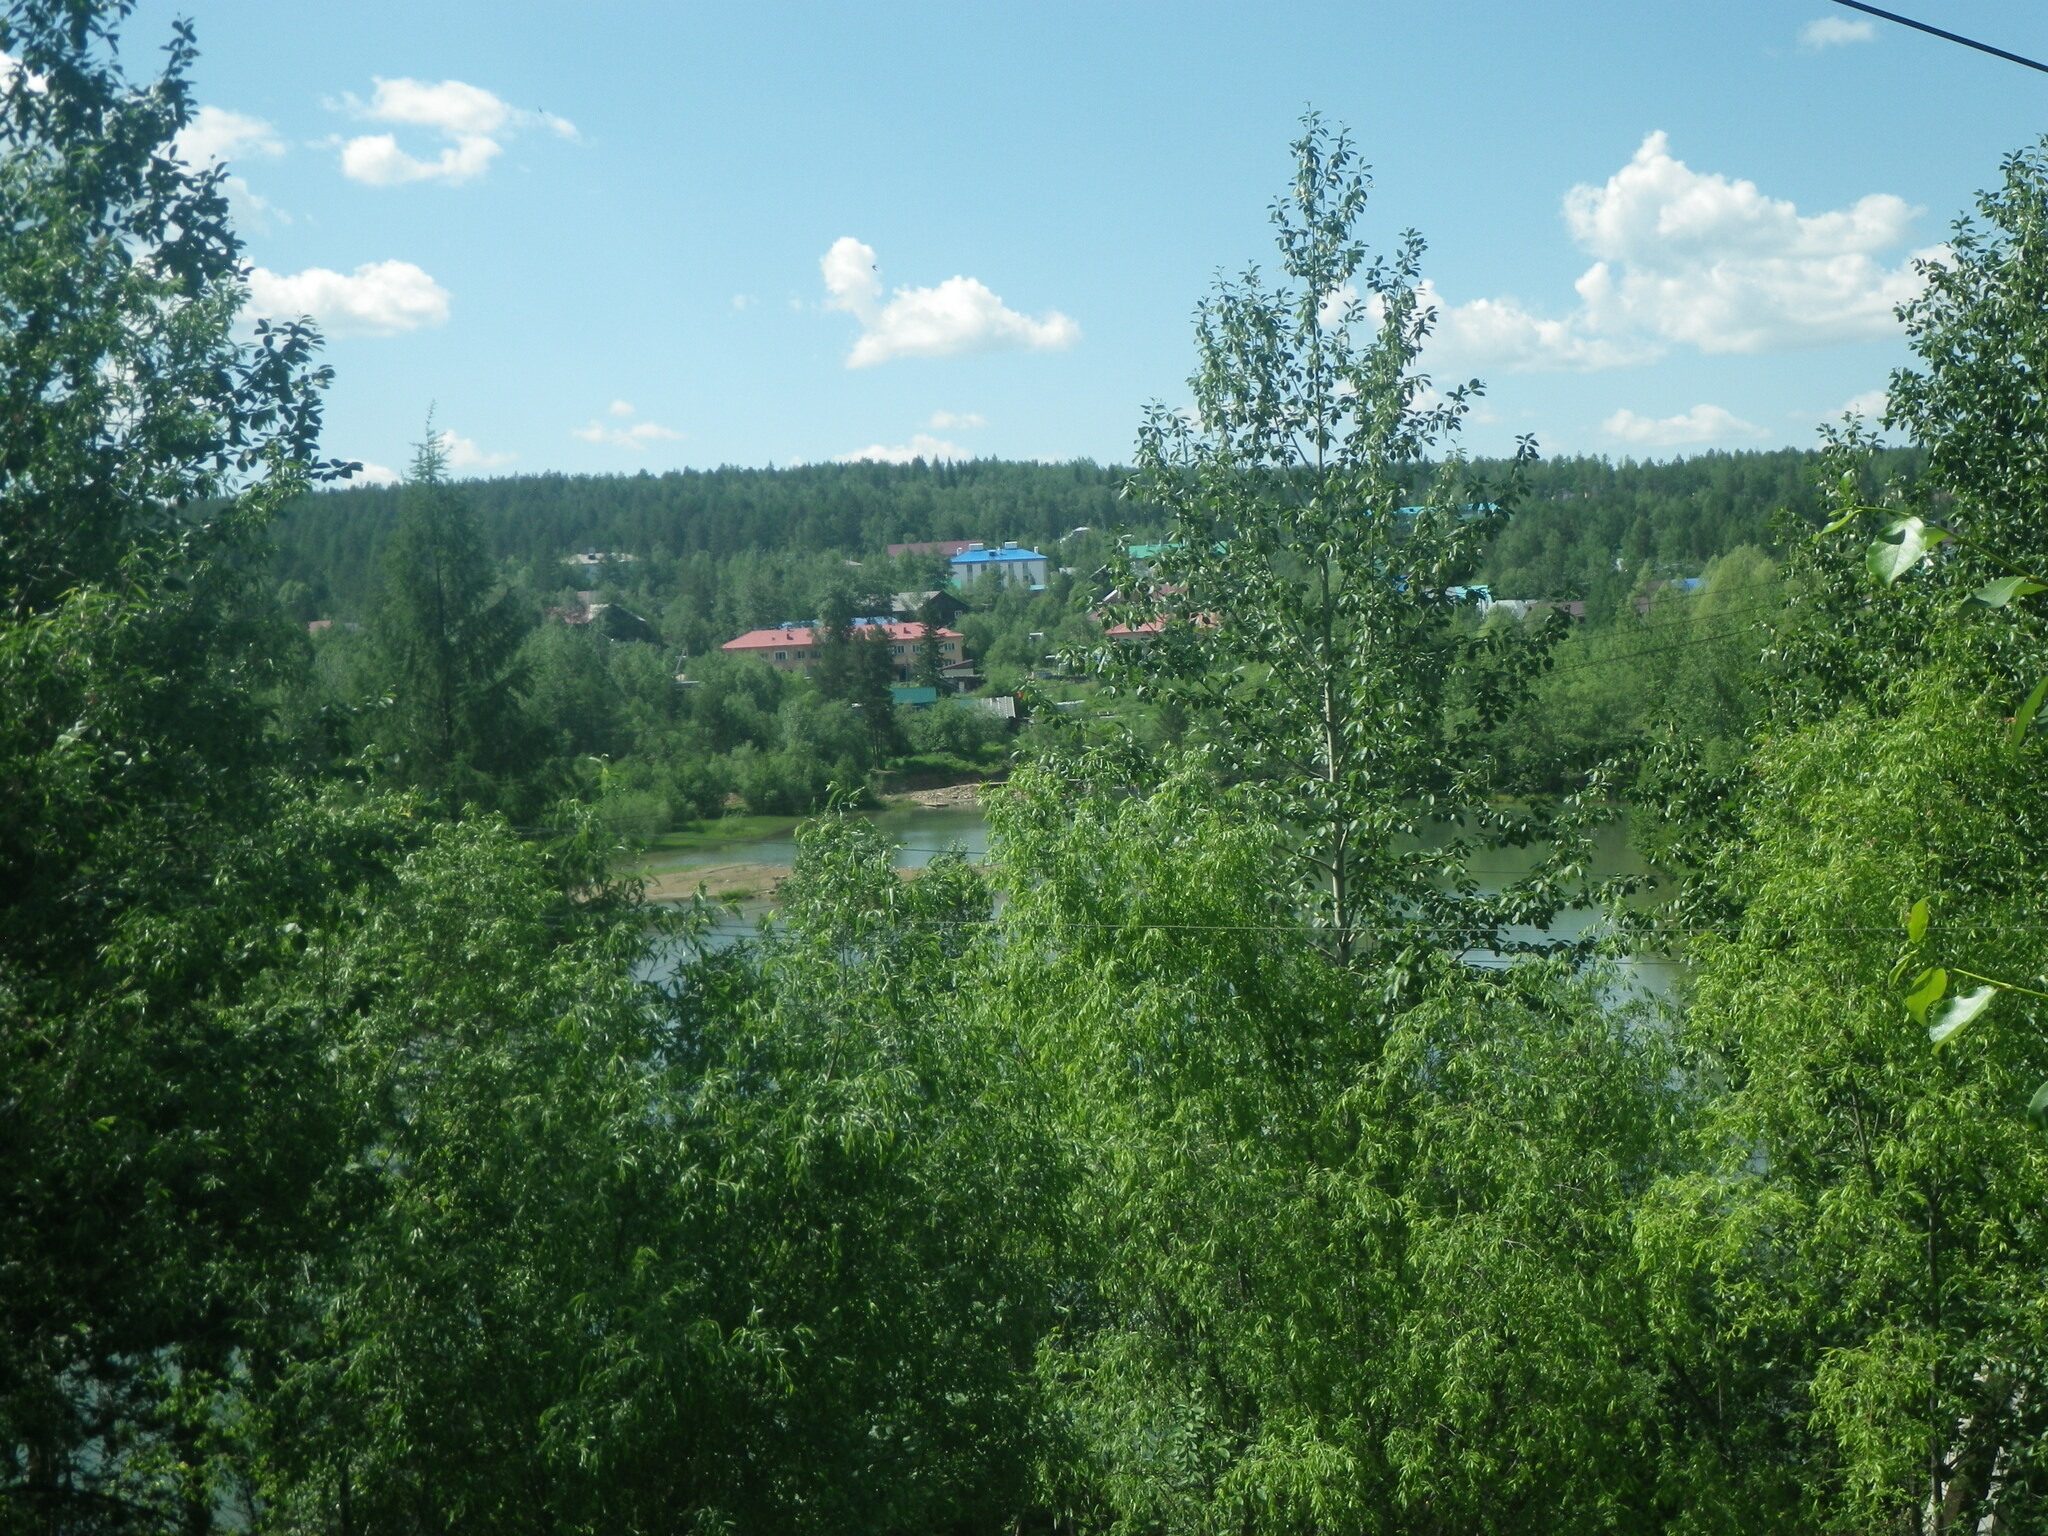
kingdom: Plantae
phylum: Tracheophyta
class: Magnoliopsida
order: Malpighiales
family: Salicaceae
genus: Populus
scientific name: Populus suaveolens
